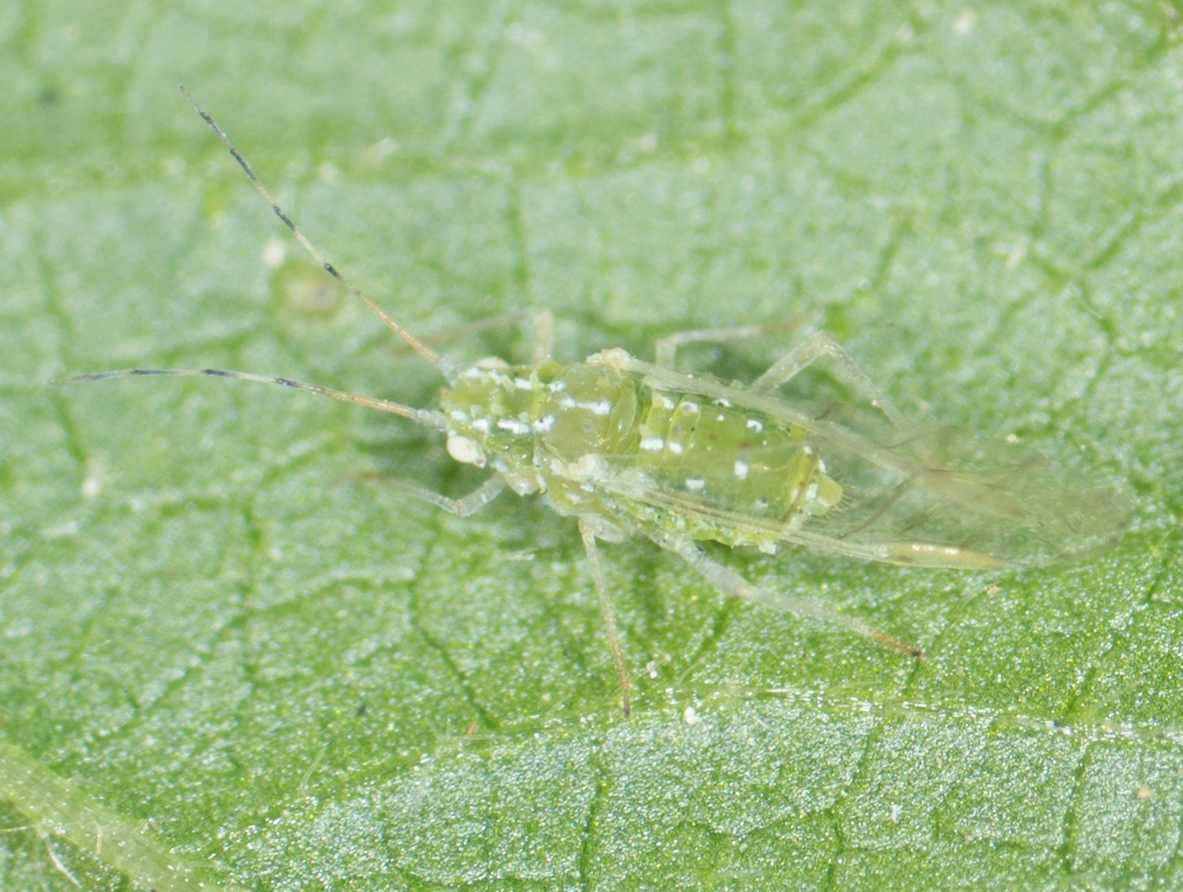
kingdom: Animalia
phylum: Arthropoda
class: Insecta
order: Hemiptera
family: Aphididae
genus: Tinocallis
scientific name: Tinocallis ulmiparvifoliae
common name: Aphid
